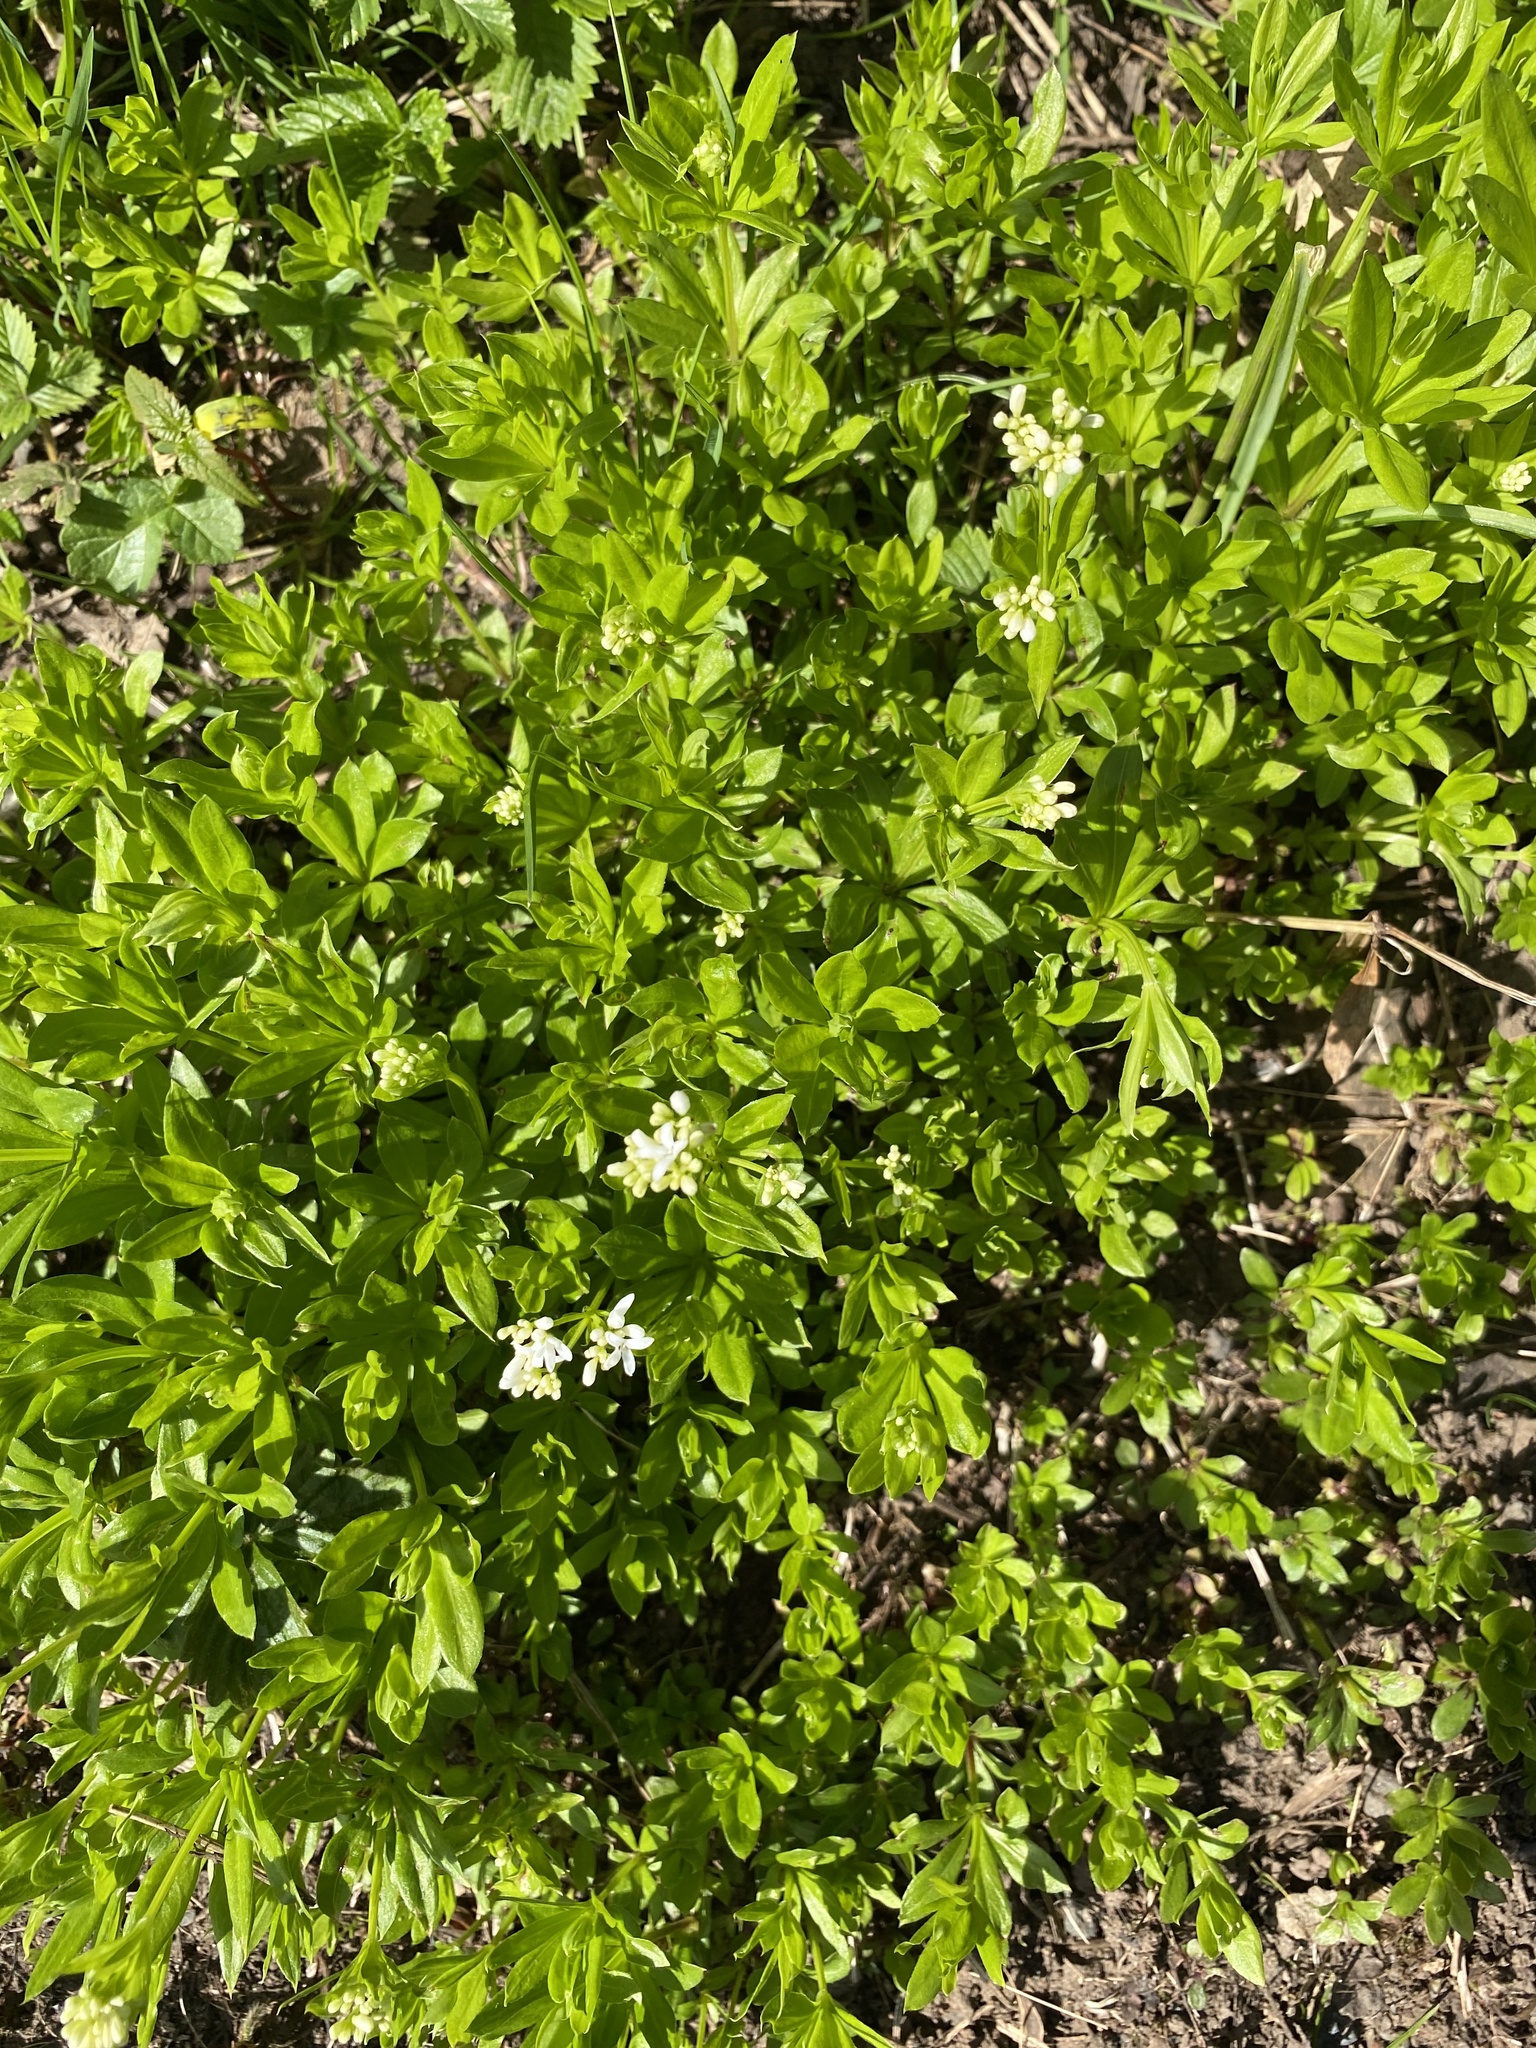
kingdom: Plantae
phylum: Tracheophyta
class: Magnoliopsida
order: Gentianales
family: Rubiaceae
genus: Galium
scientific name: Galium odoratum
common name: Sweet woodruff
